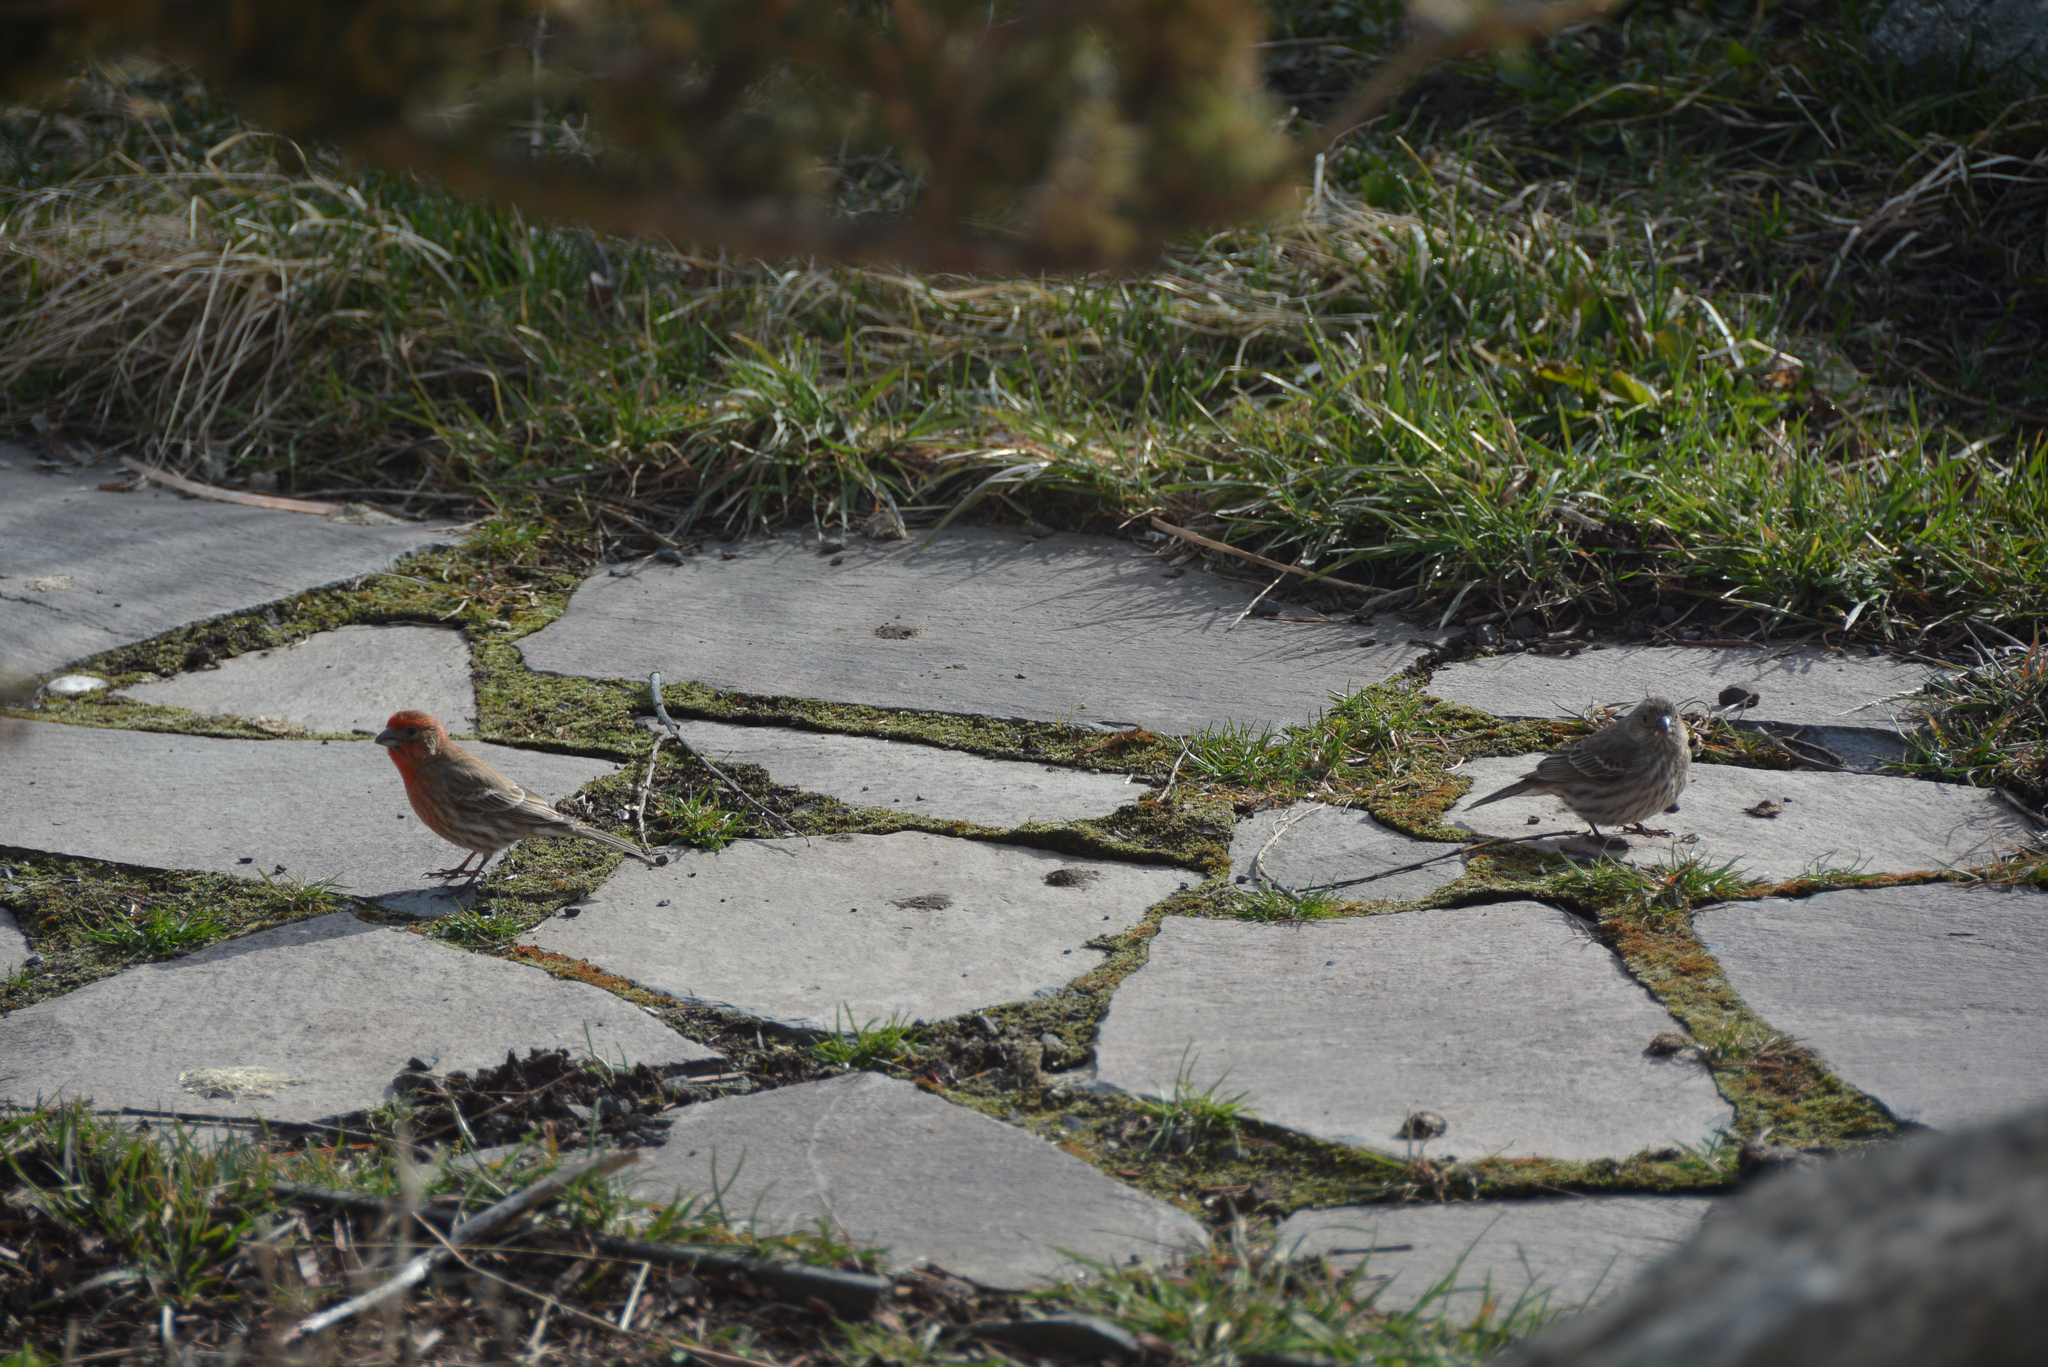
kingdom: Animalia
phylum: Chordata
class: Aves
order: Passeriformes
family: Fringillidae
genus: Haemorhous
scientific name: Haemorhous mexicanus
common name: House finch
